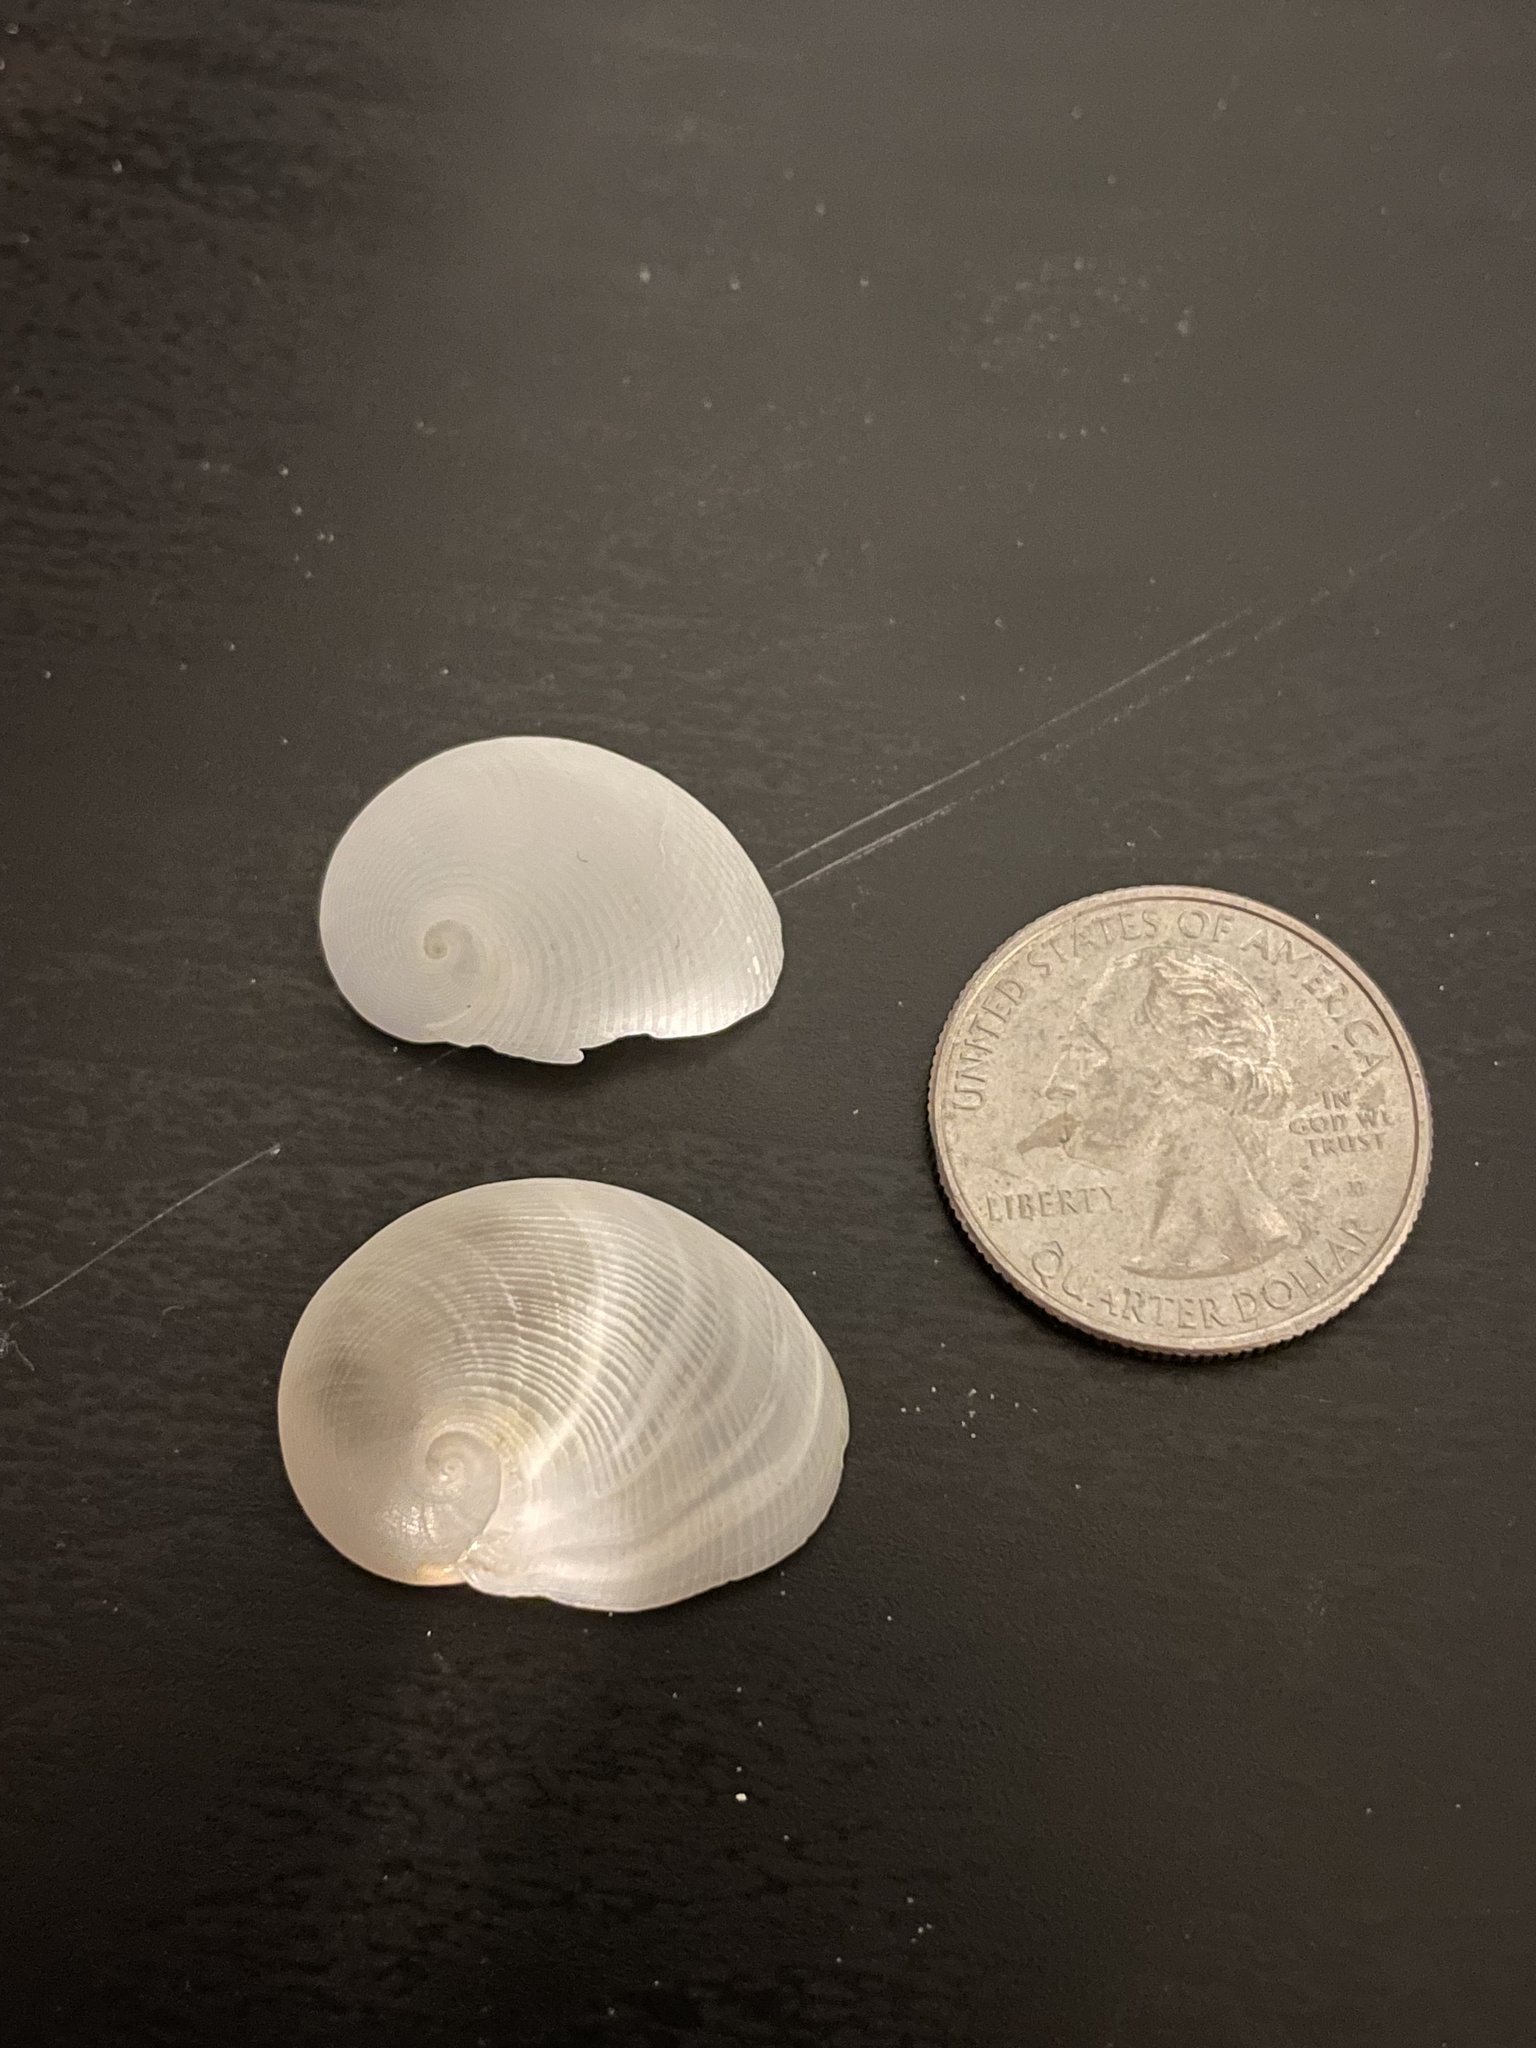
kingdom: Animalia
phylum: Mollusca
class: Gastropoda
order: Littorinimorpha
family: Naticidae
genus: Sinum
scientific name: Sinum perspectivum
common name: White baby ear
